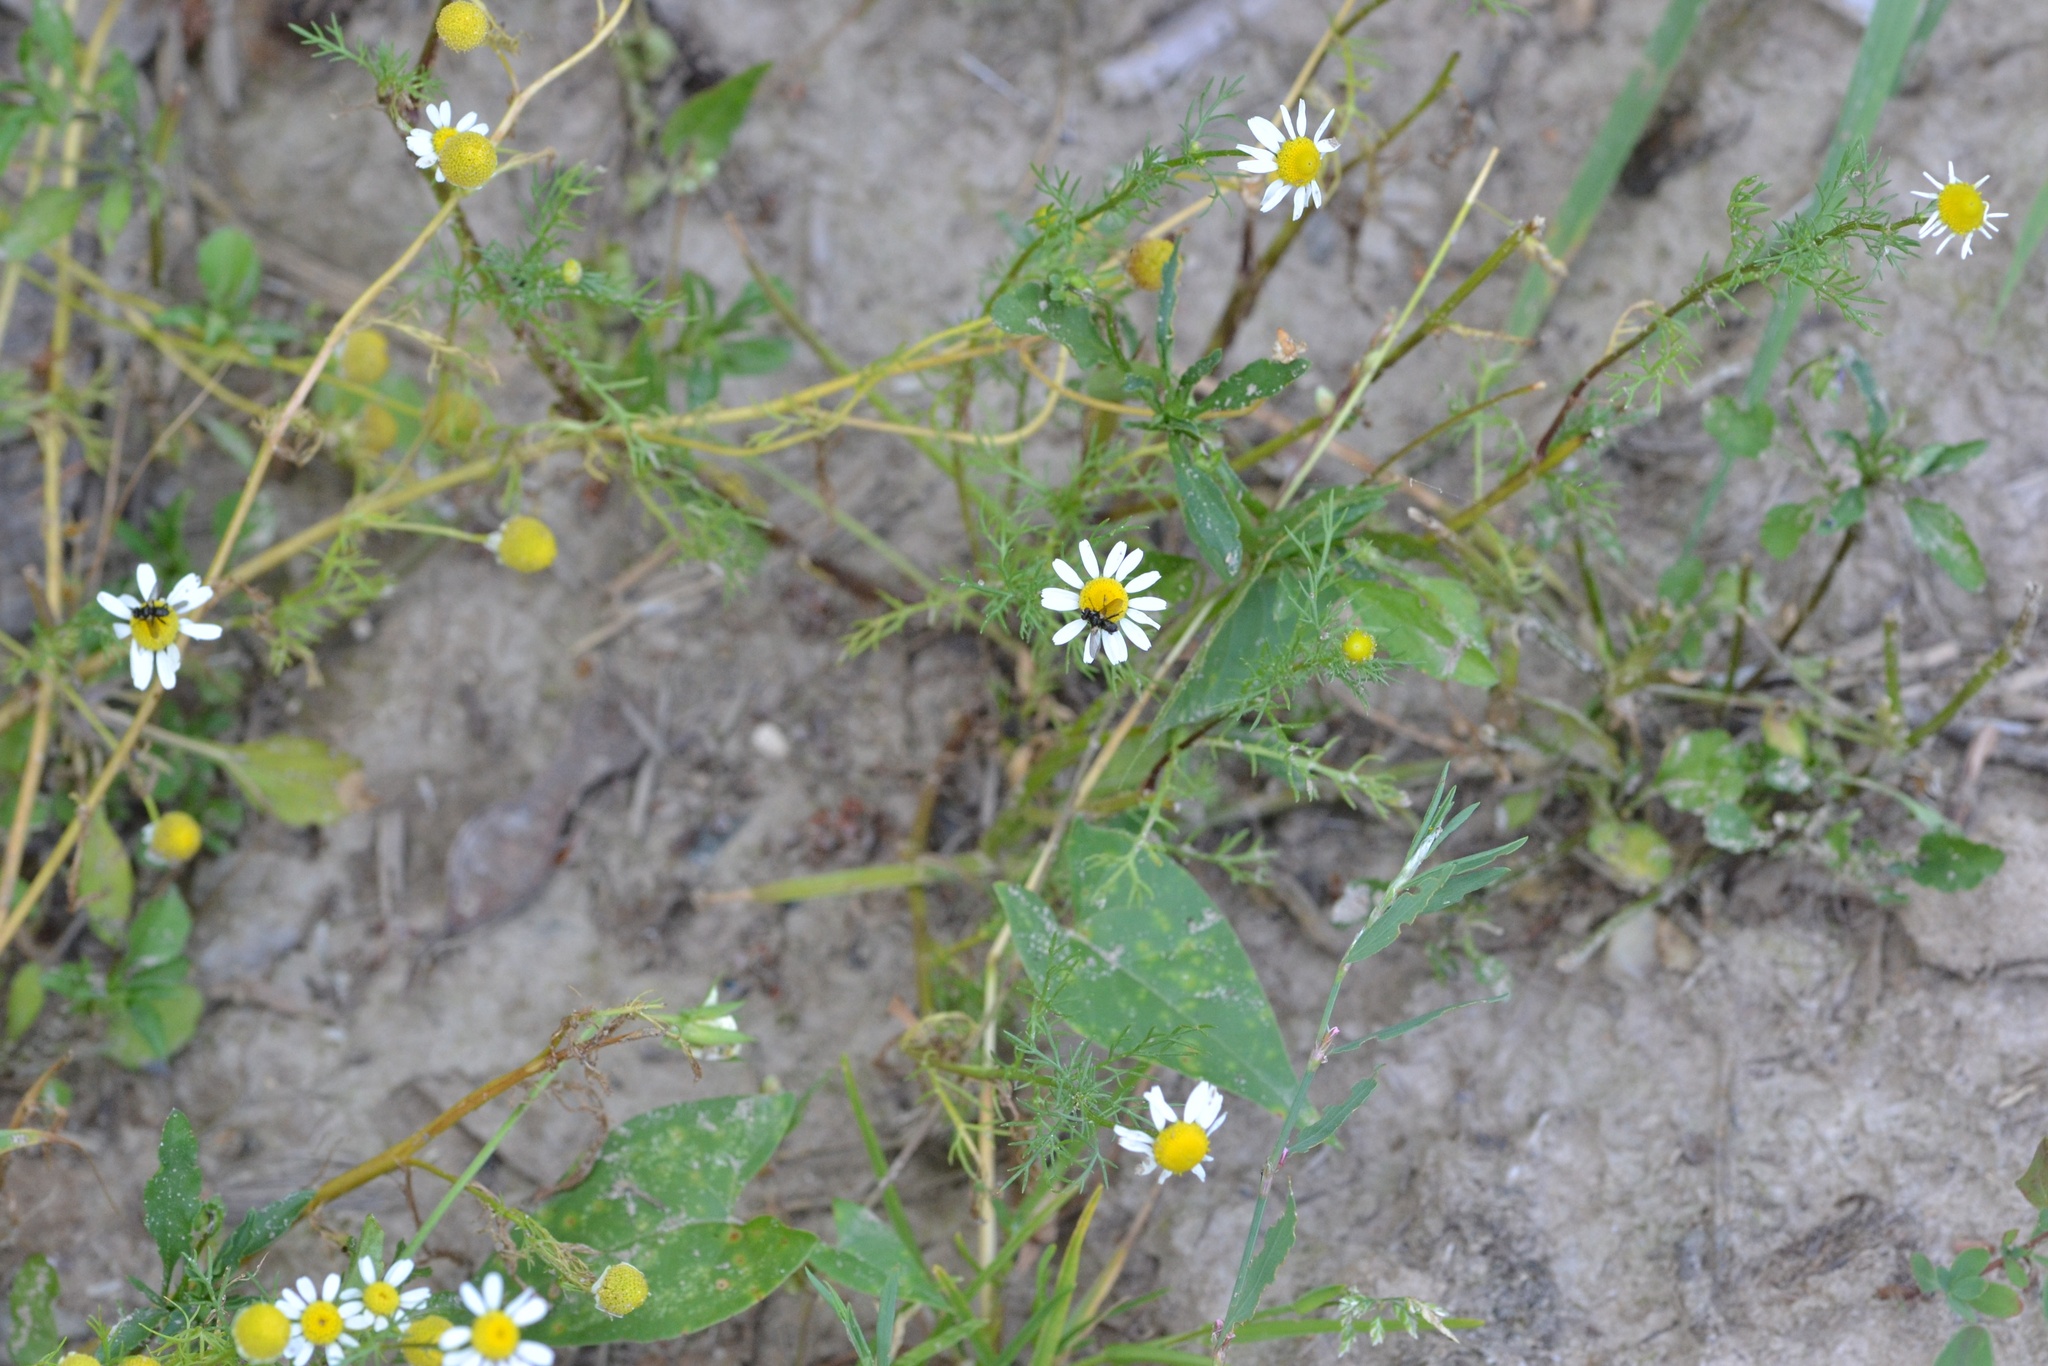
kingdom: Plantae
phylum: Tracheophyta
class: Magnoliopsida
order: Asterales
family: Asteraceae
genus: Matricaria
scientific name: Matricaria chamomilla
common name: Scented mayweed
